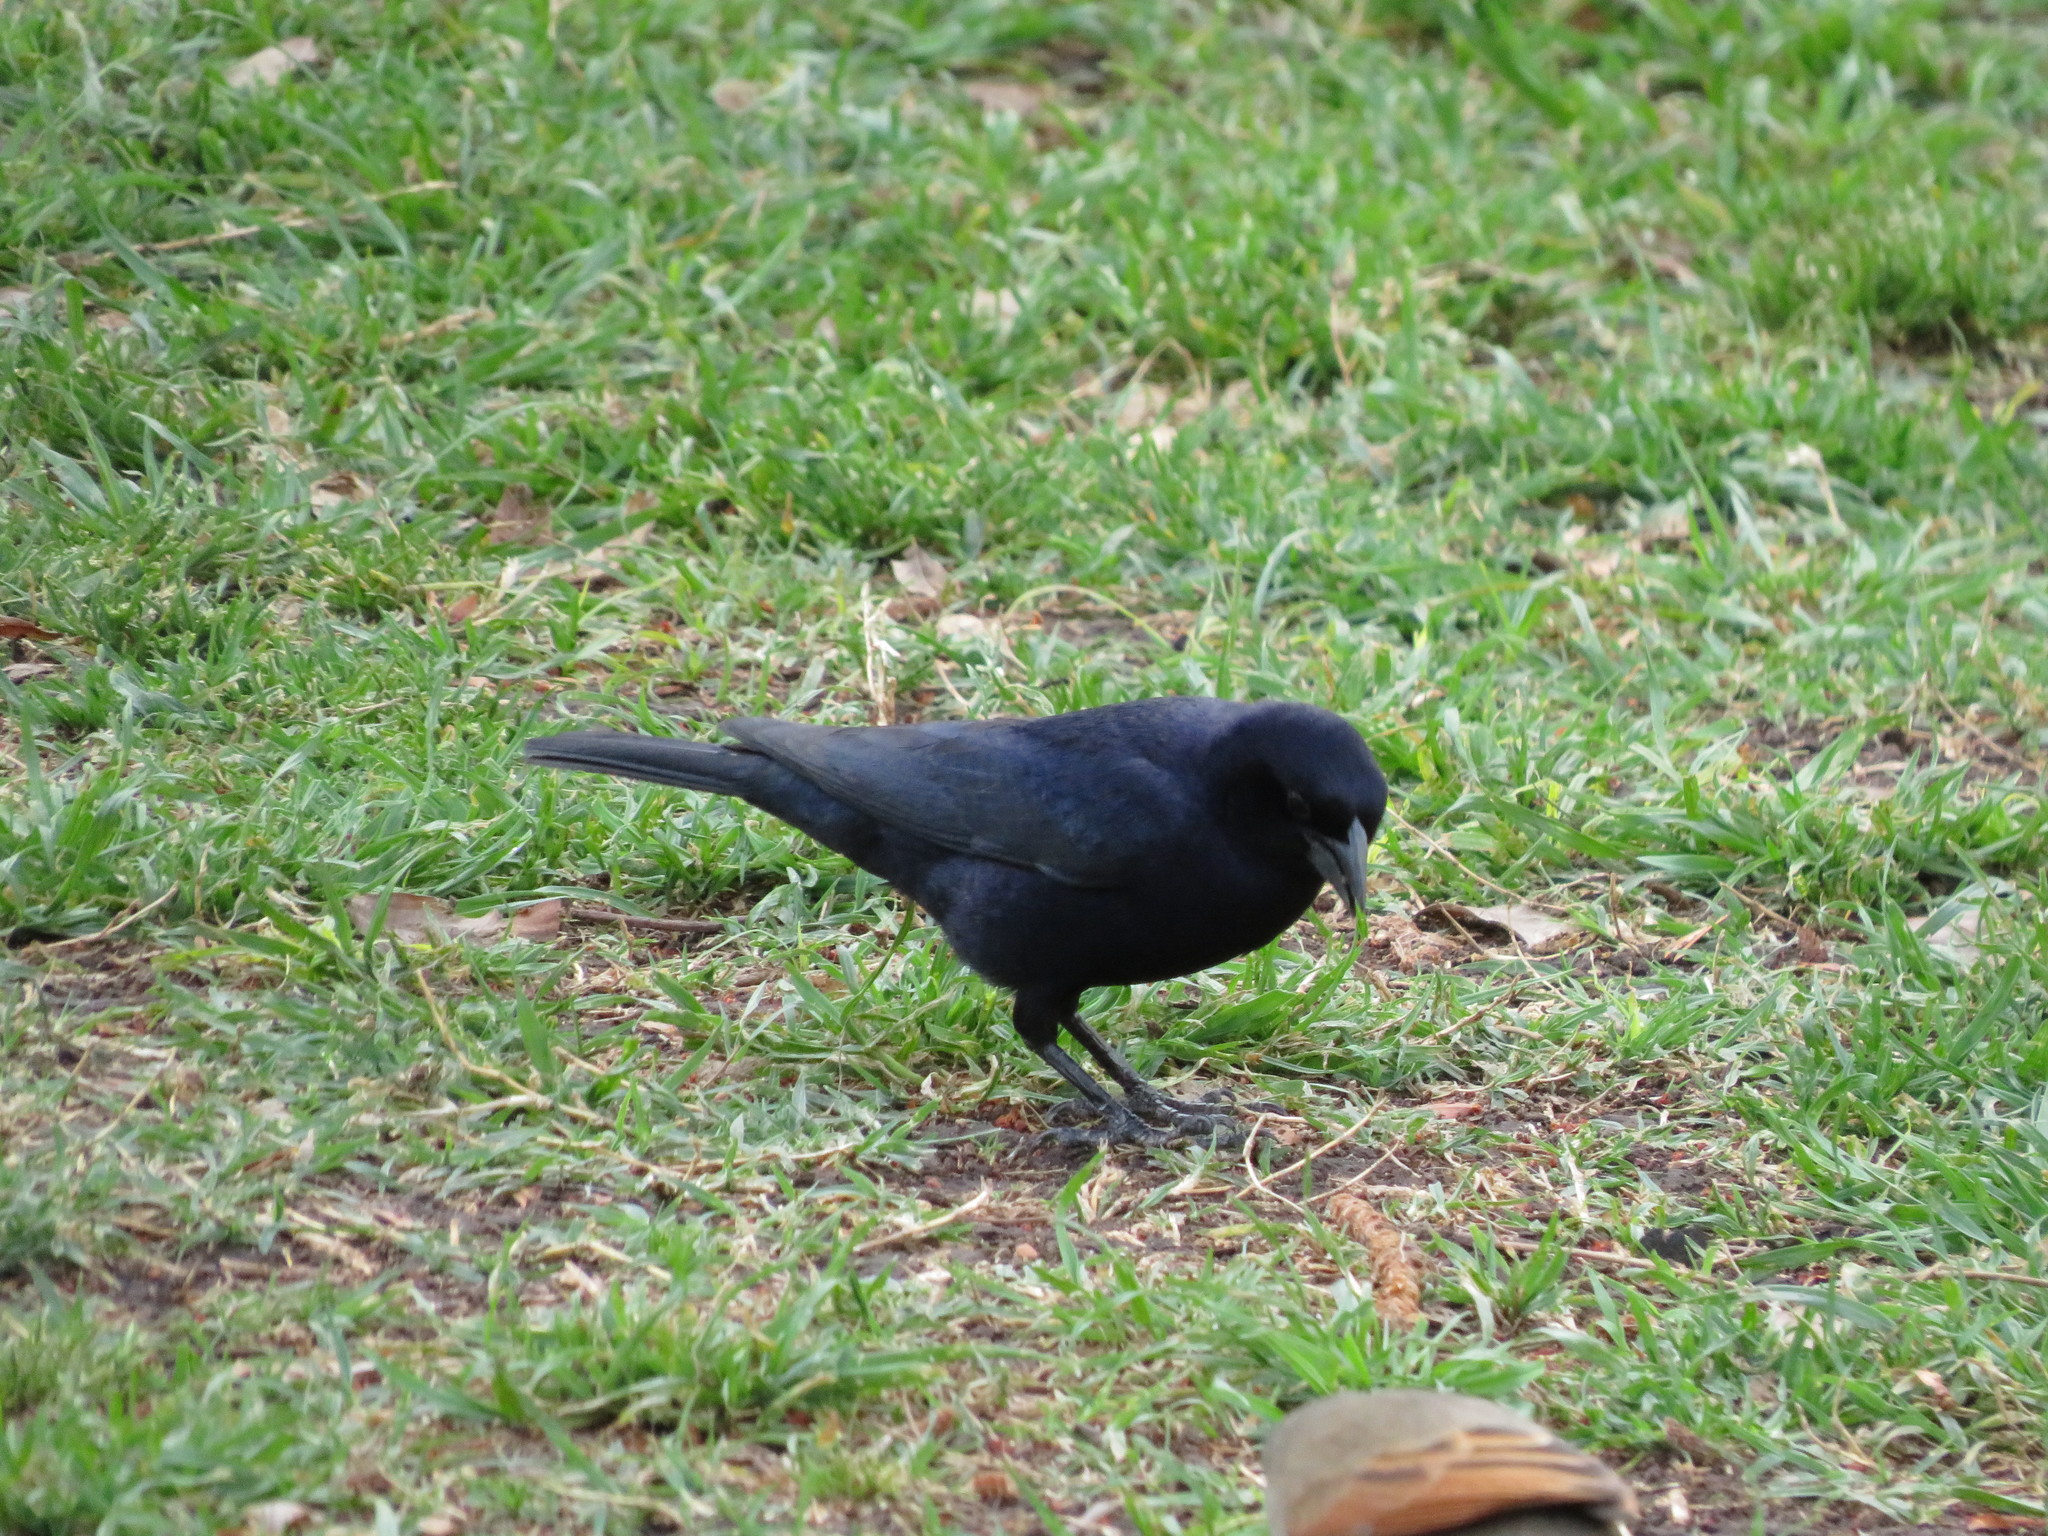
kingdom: Animalia
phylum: Chordata
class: Aves
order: Passeriformes
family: Icteridae
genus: Molothrus
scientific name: Molothrus bonariensis
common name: Shiny cowbird
